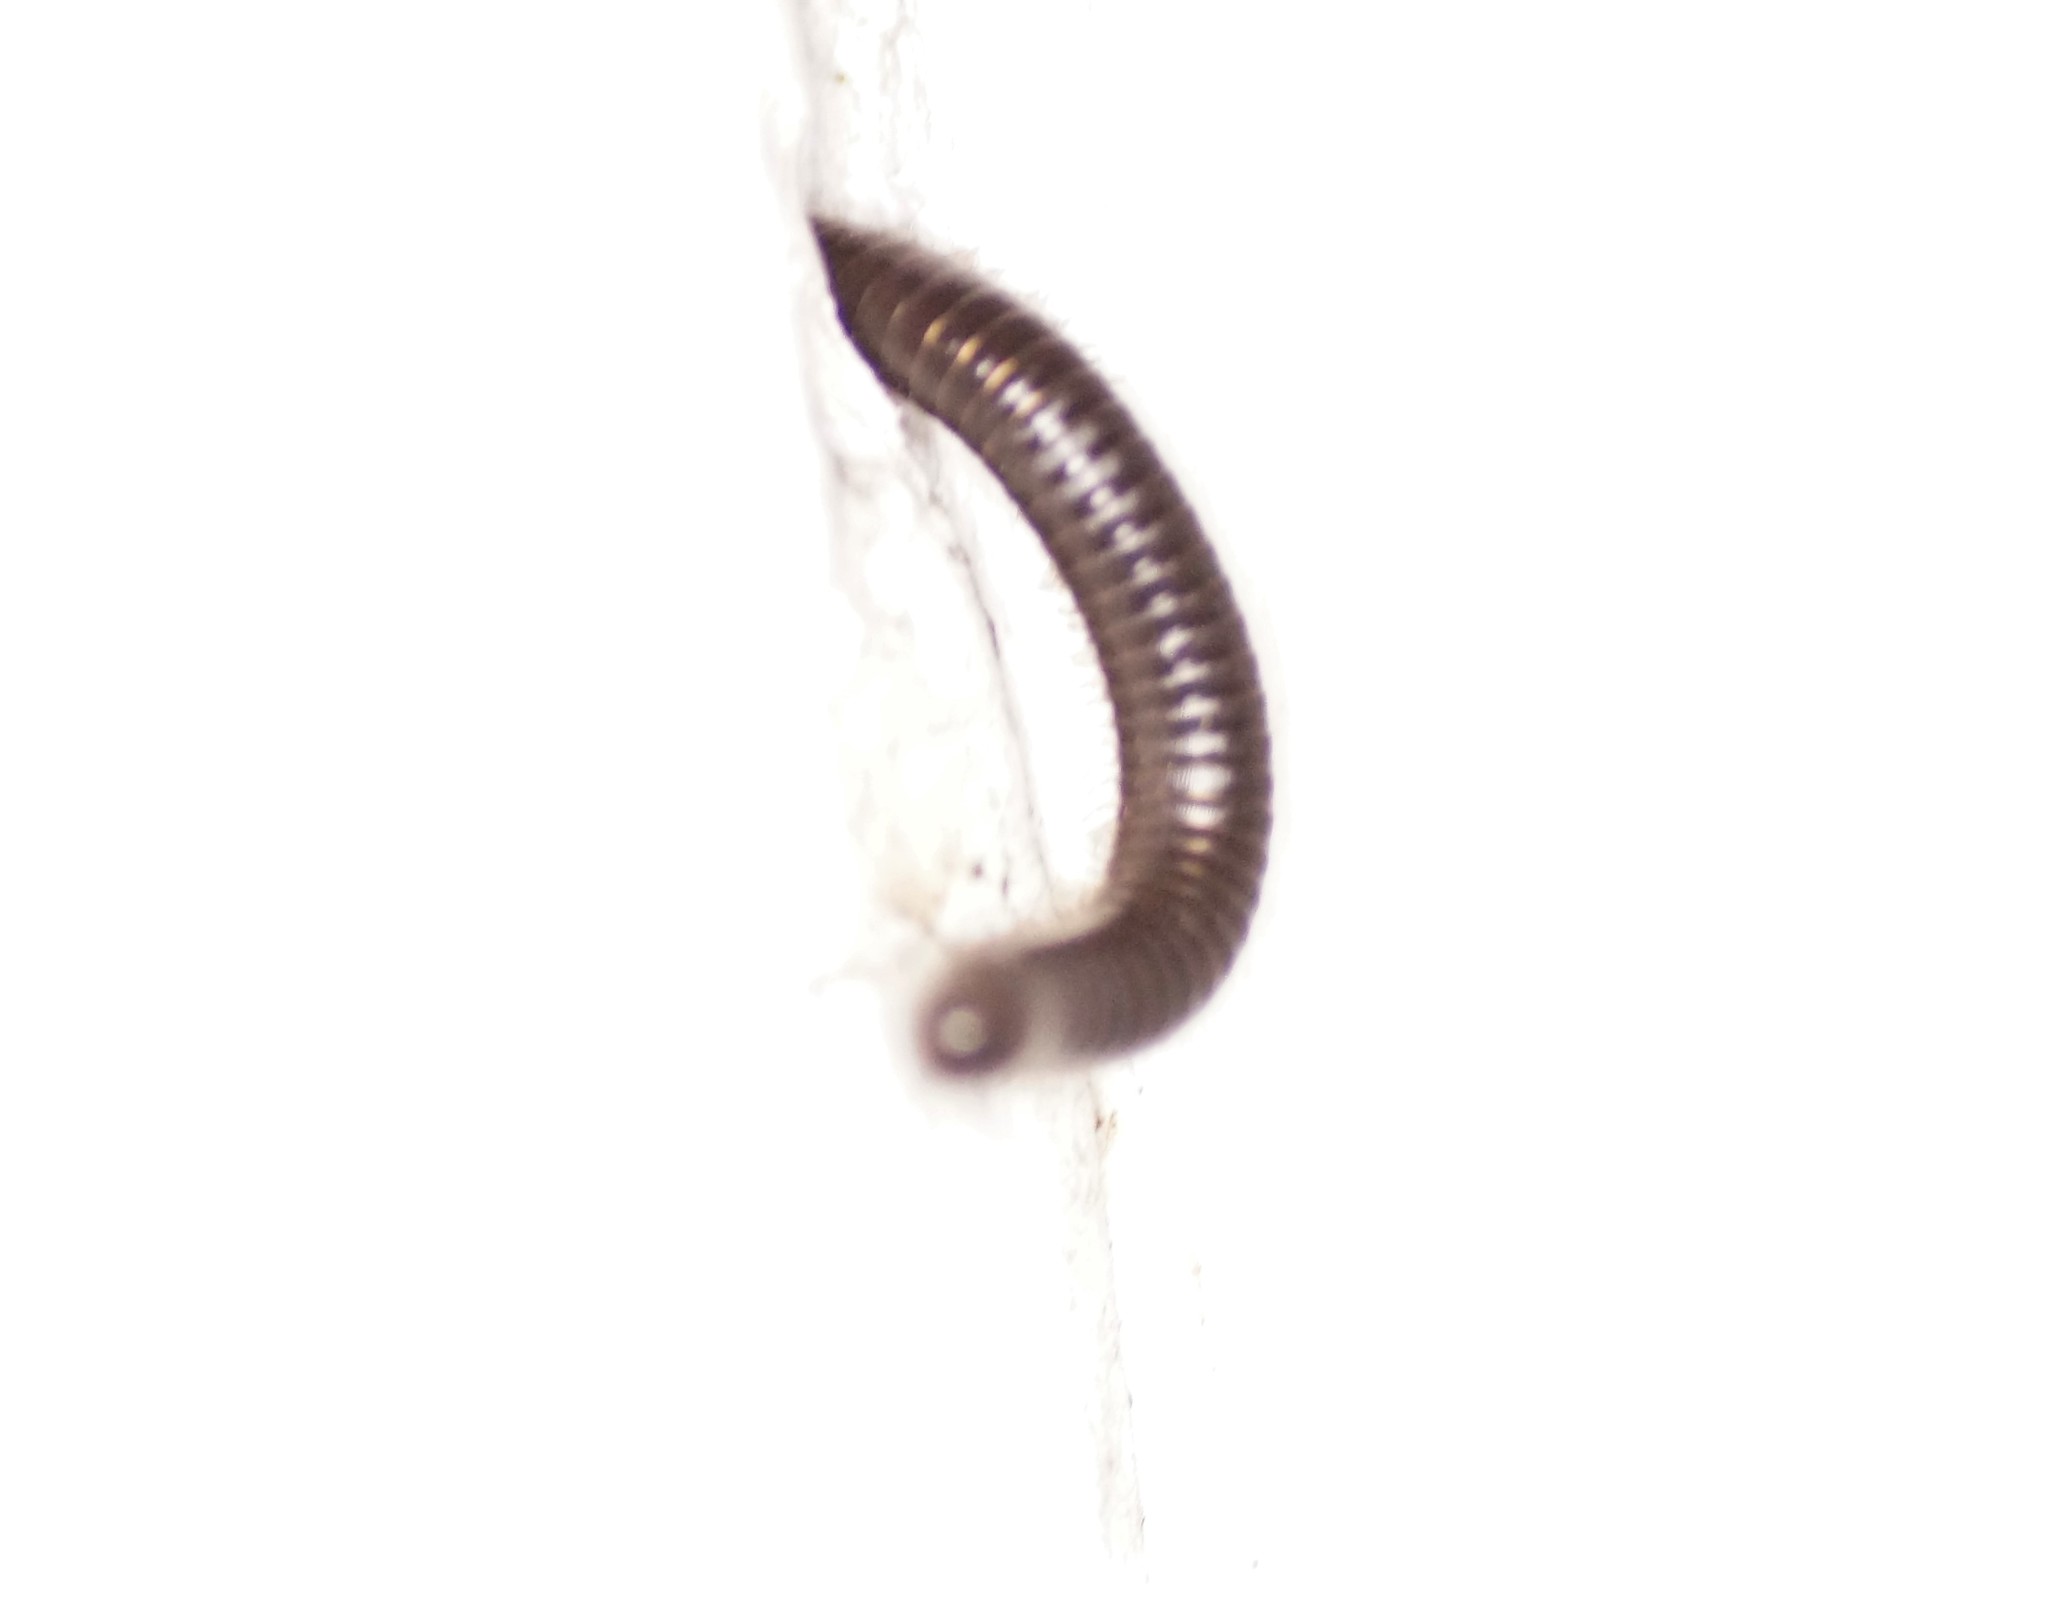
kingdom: Animalia
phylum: Arthropoda
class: Diplopoda
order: Julida
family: Julidae
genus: Ommatoiulus
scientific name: Ommatoiulus moreleti
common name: Portuguese millipede
